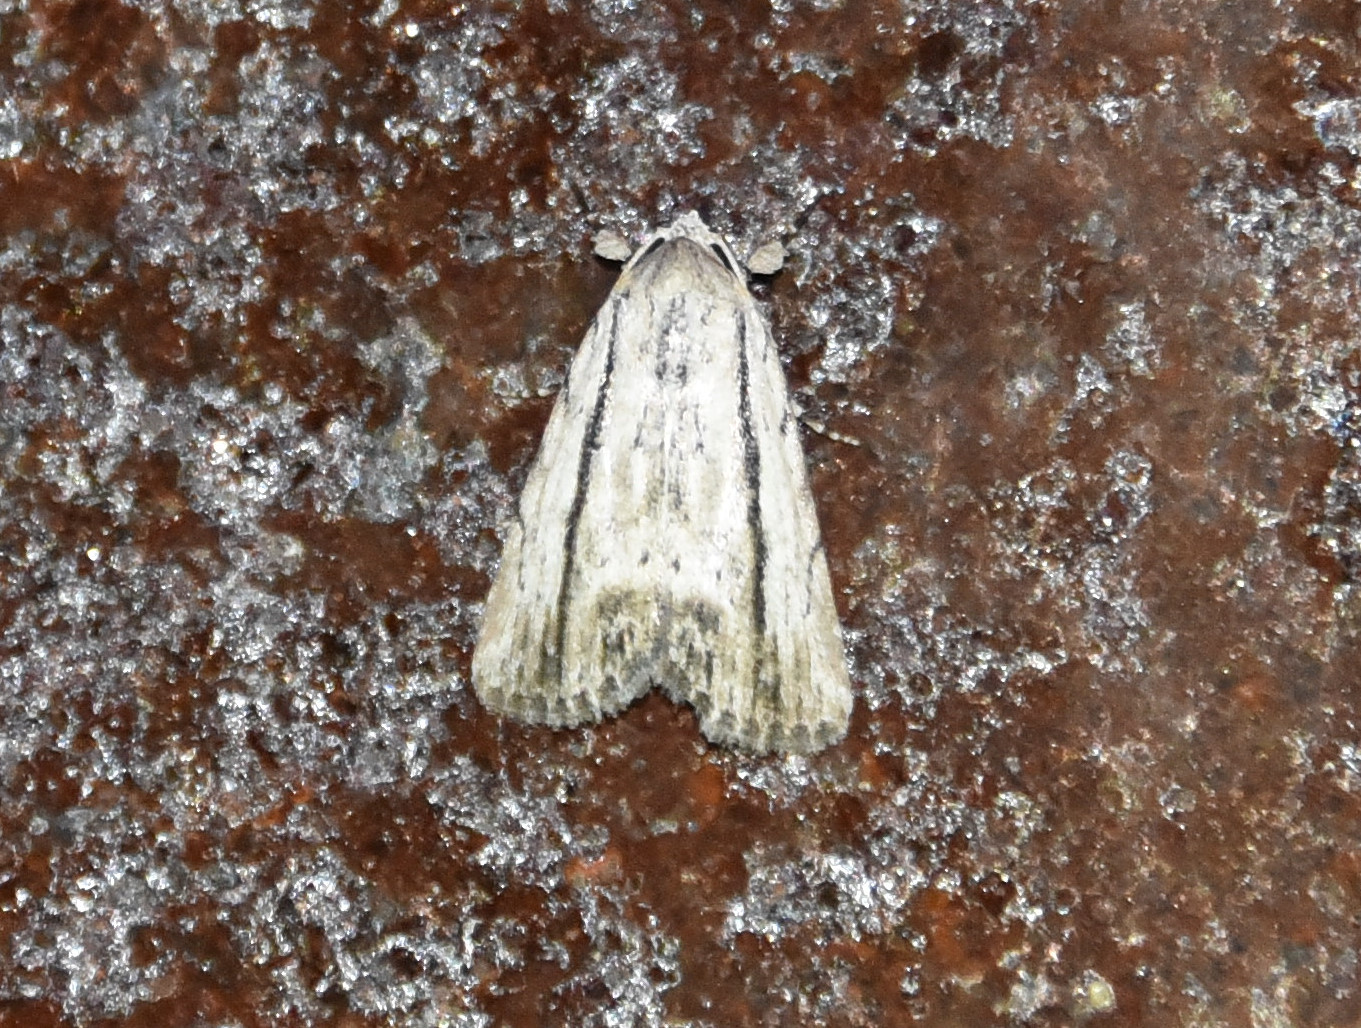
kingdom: Animalia
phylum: Arthropoda
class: Insecta
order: Lepidoptera
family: Noctuidae
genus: Catabenoides
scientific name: Catabenoides terminellus
